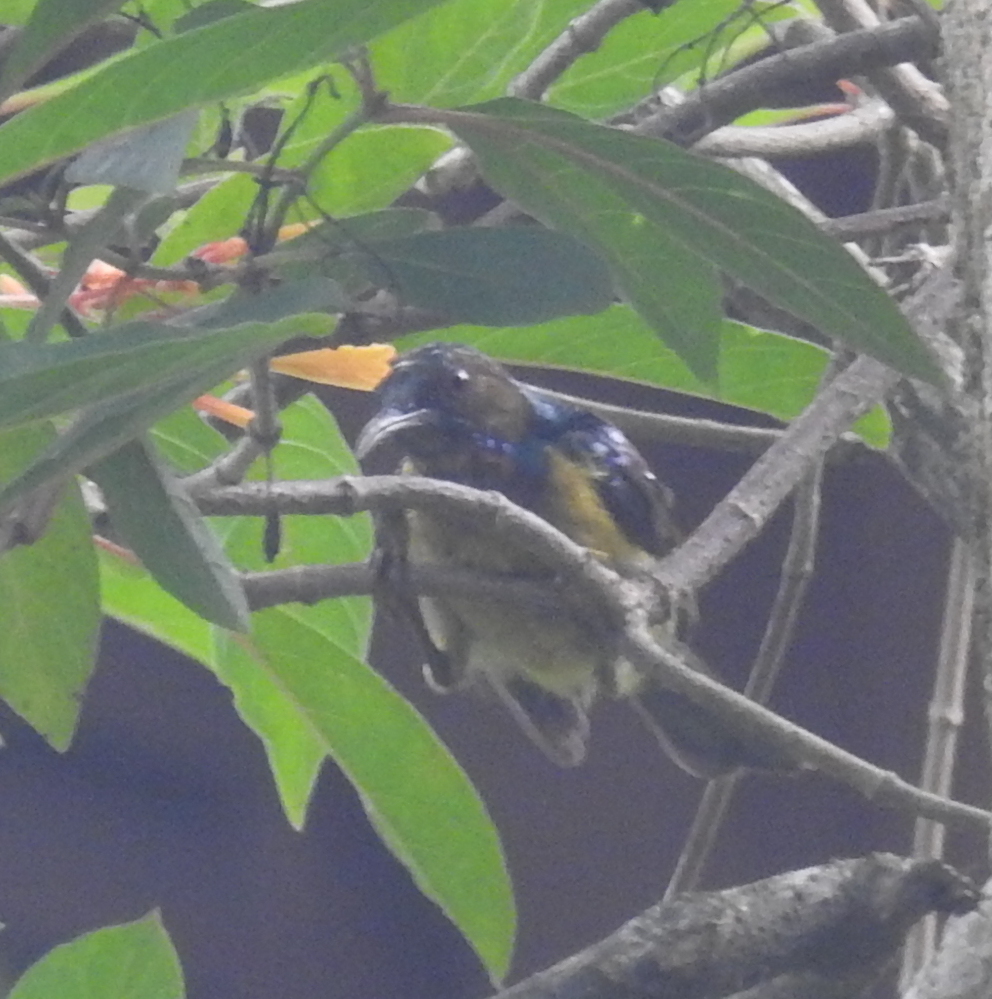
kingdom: Animalia
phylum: Chordata
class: Aves
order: Passeriformes
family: Nectariniidae
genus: Anthreptes
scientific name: Anthreptes malacensis
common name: Brown-throated sunbird
